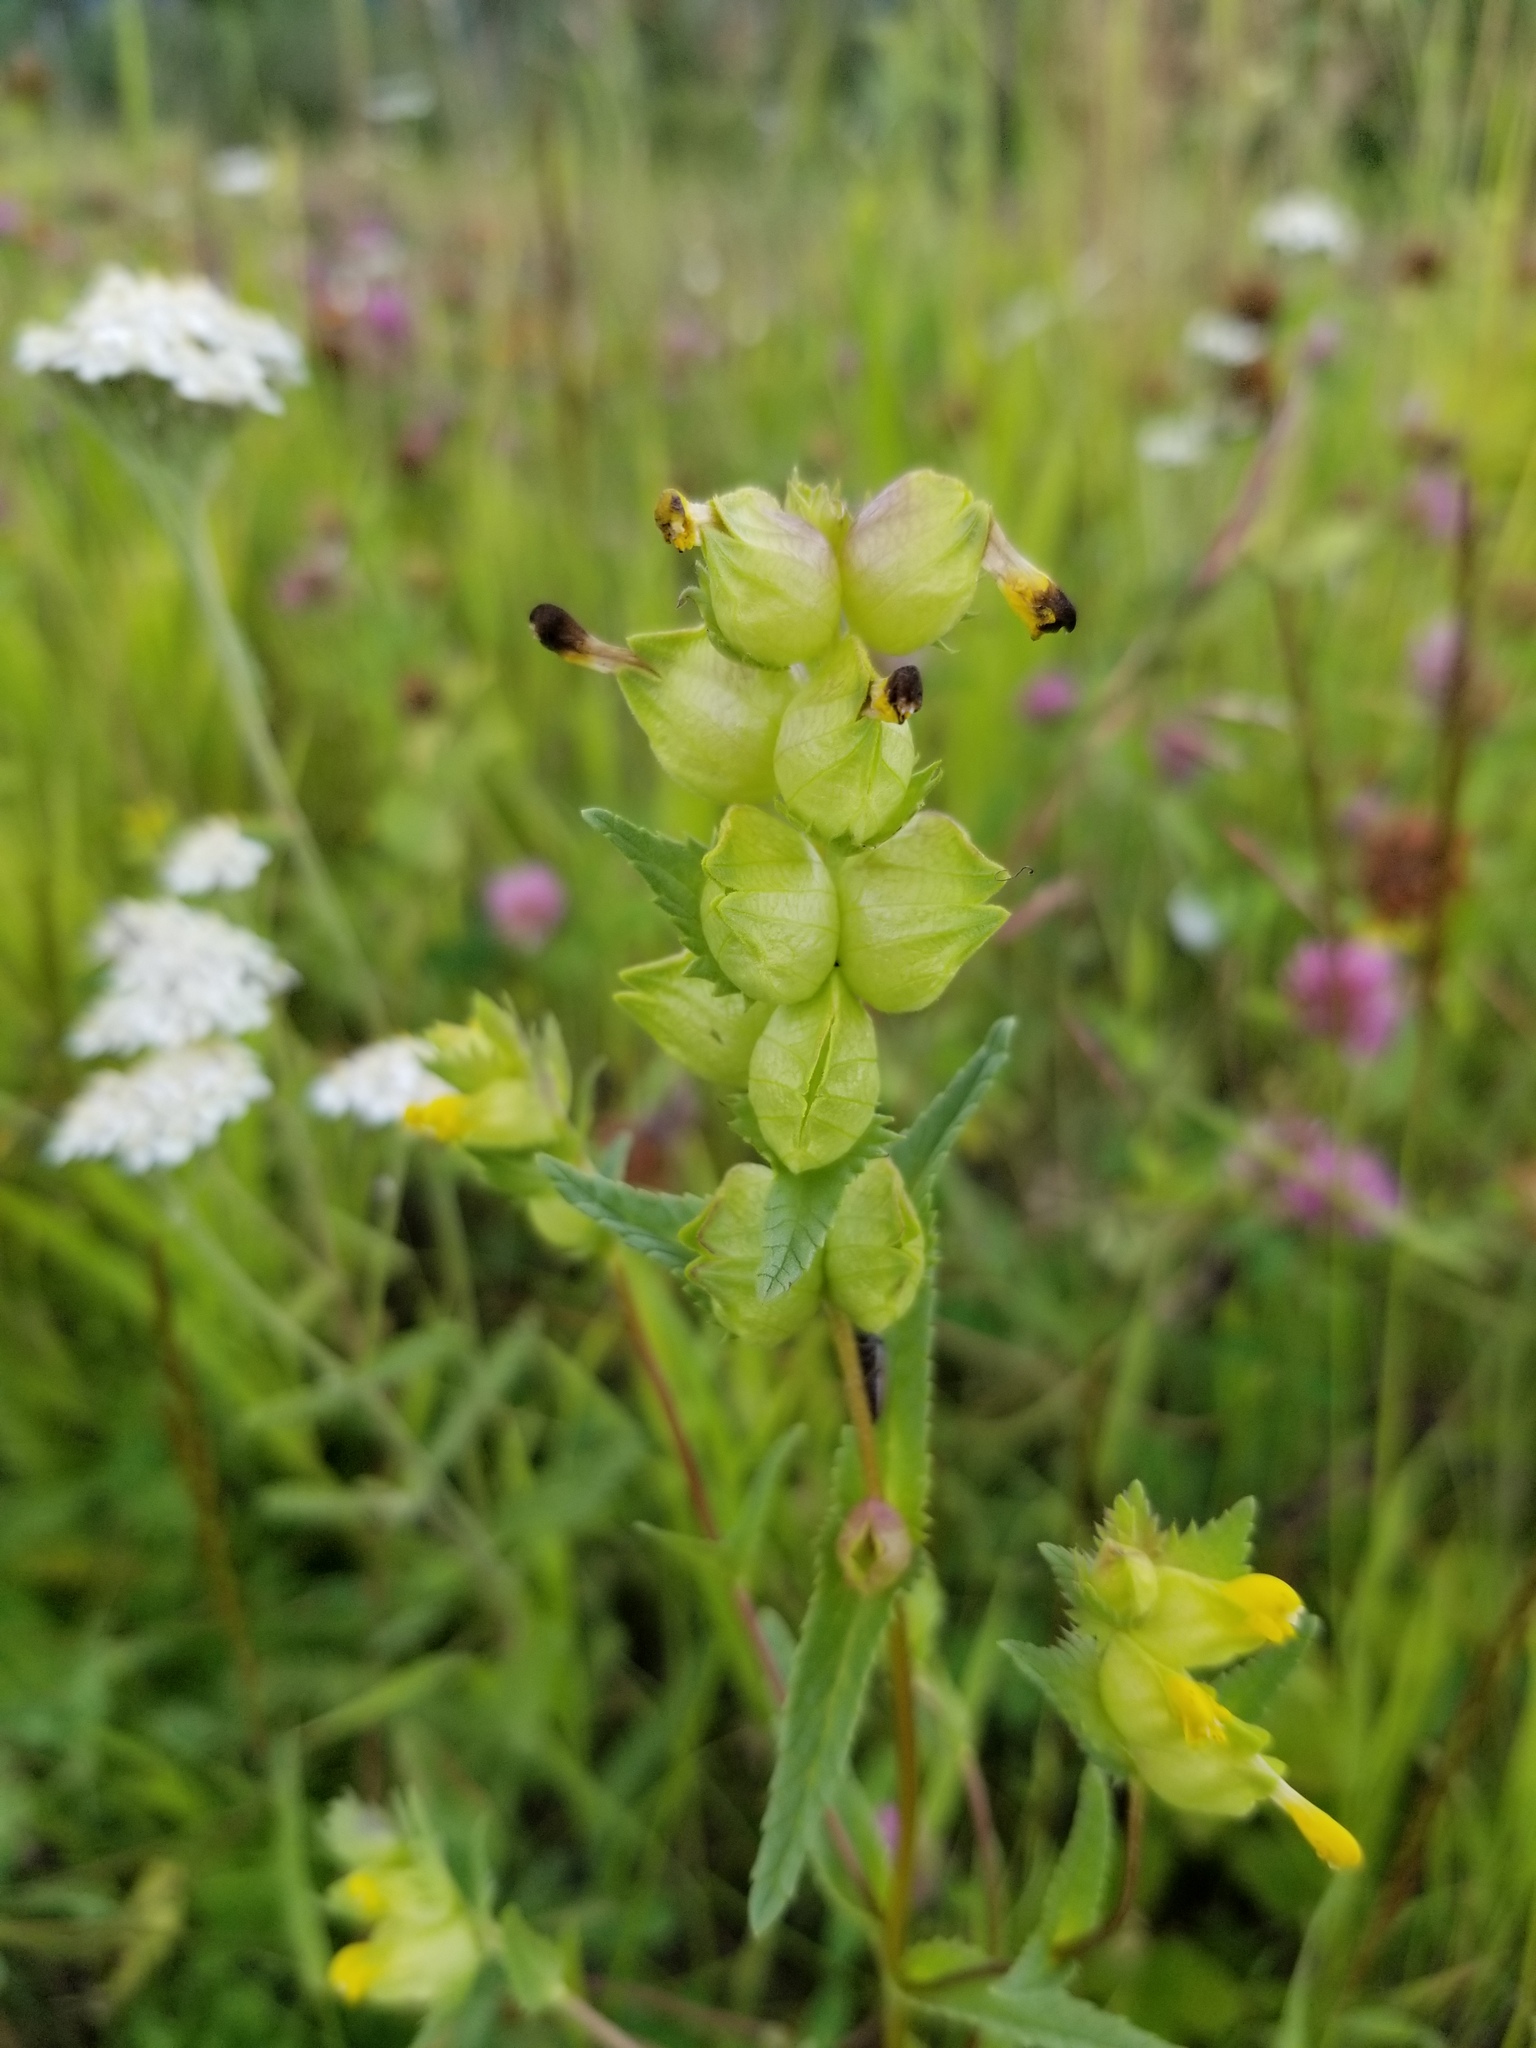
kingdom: Plantae
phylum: Tracheophyta
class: Magnoliopsida
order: Lamiales
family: Orobanchaceae
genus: Rhinanthus
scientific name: Rhinanthus groenlandicus
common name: Little yellow rattle
